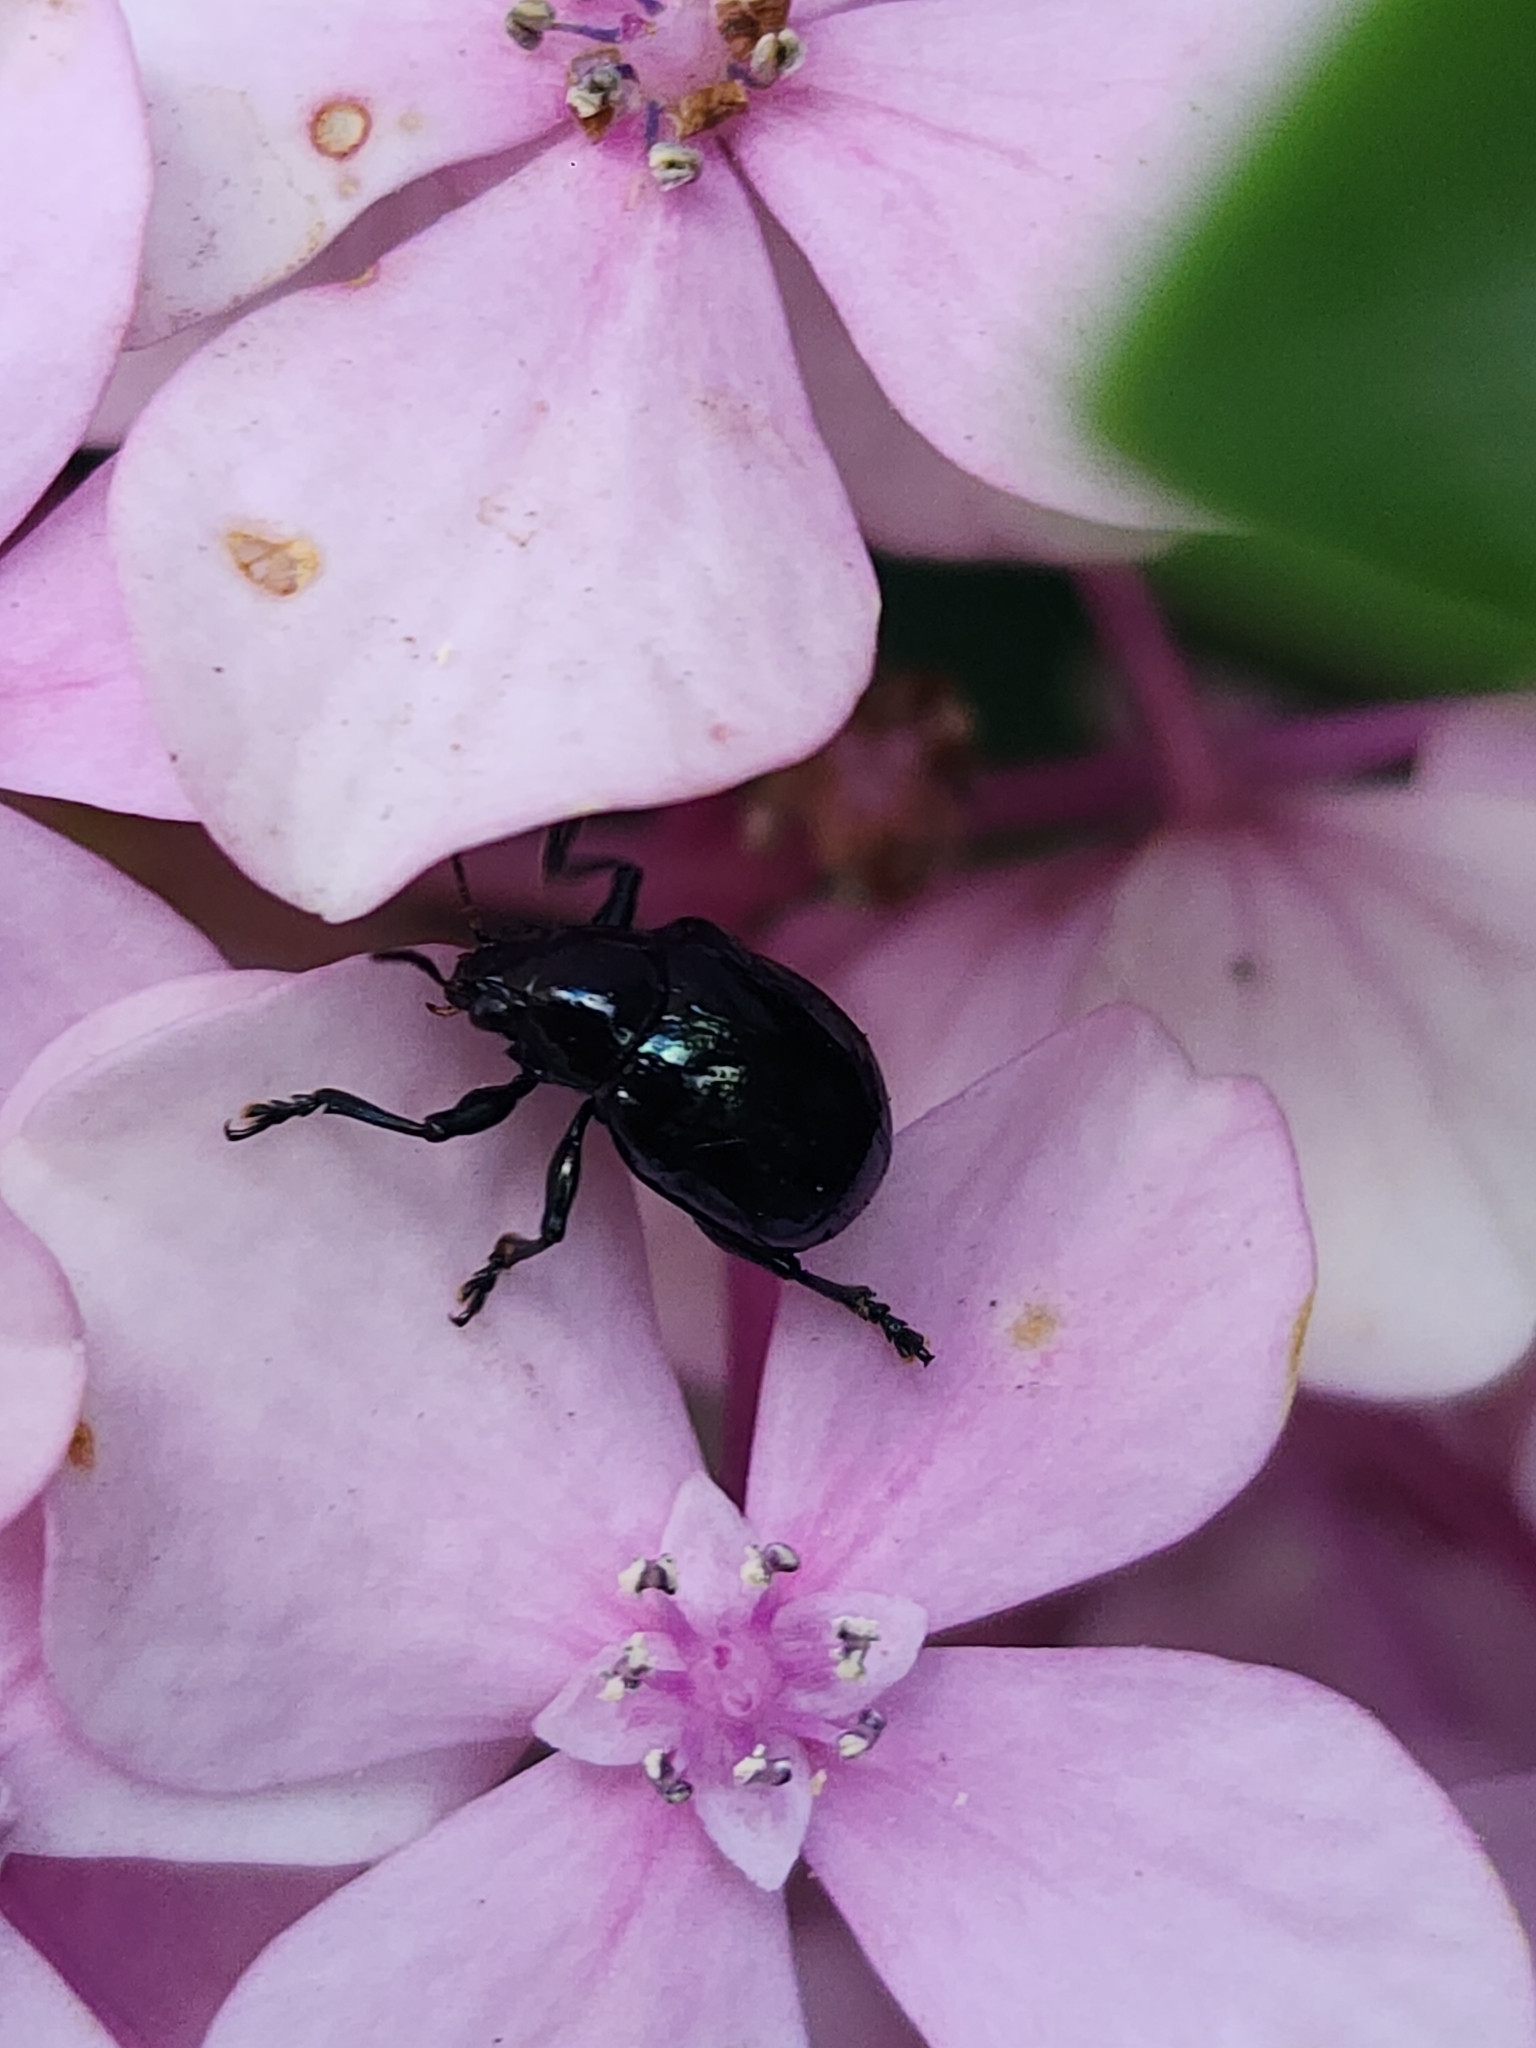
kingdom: Animalia
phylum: Arthropoda
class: Insecta
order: Coleoptera
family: Chrysomelidae
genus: Typophorus
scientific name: Typophorus nigritus
